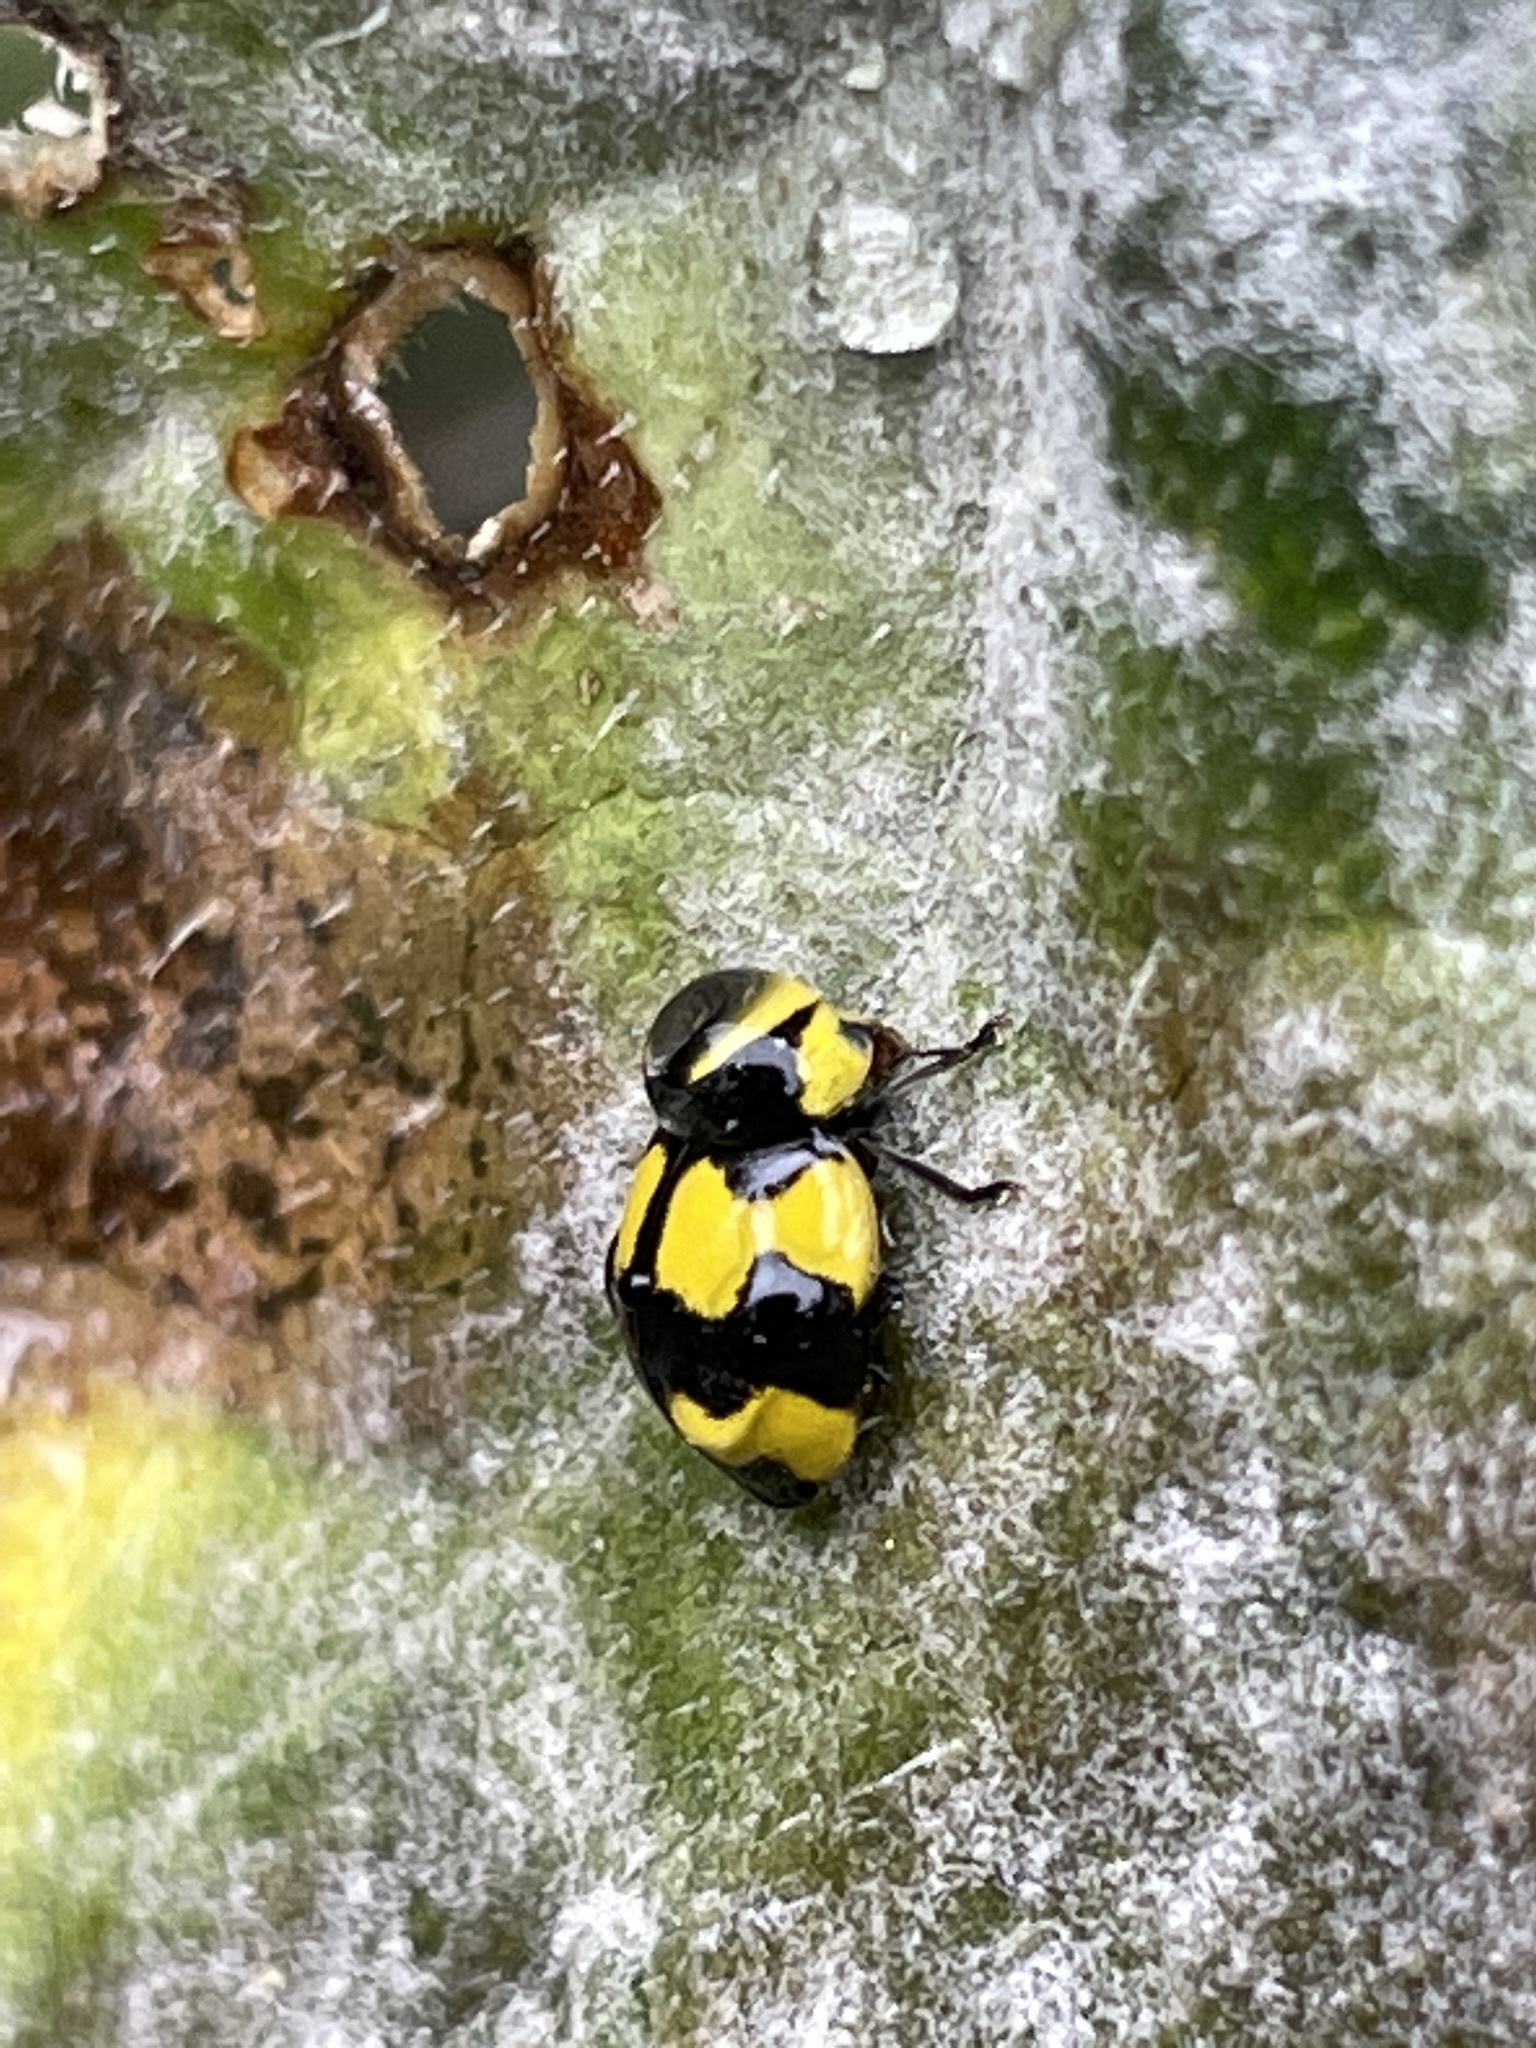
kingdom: Animalia
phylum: Arthropoda
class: Insecta
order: Coleoptera
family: Coccinellidae
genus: Illeis
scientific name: Illeis galbula
